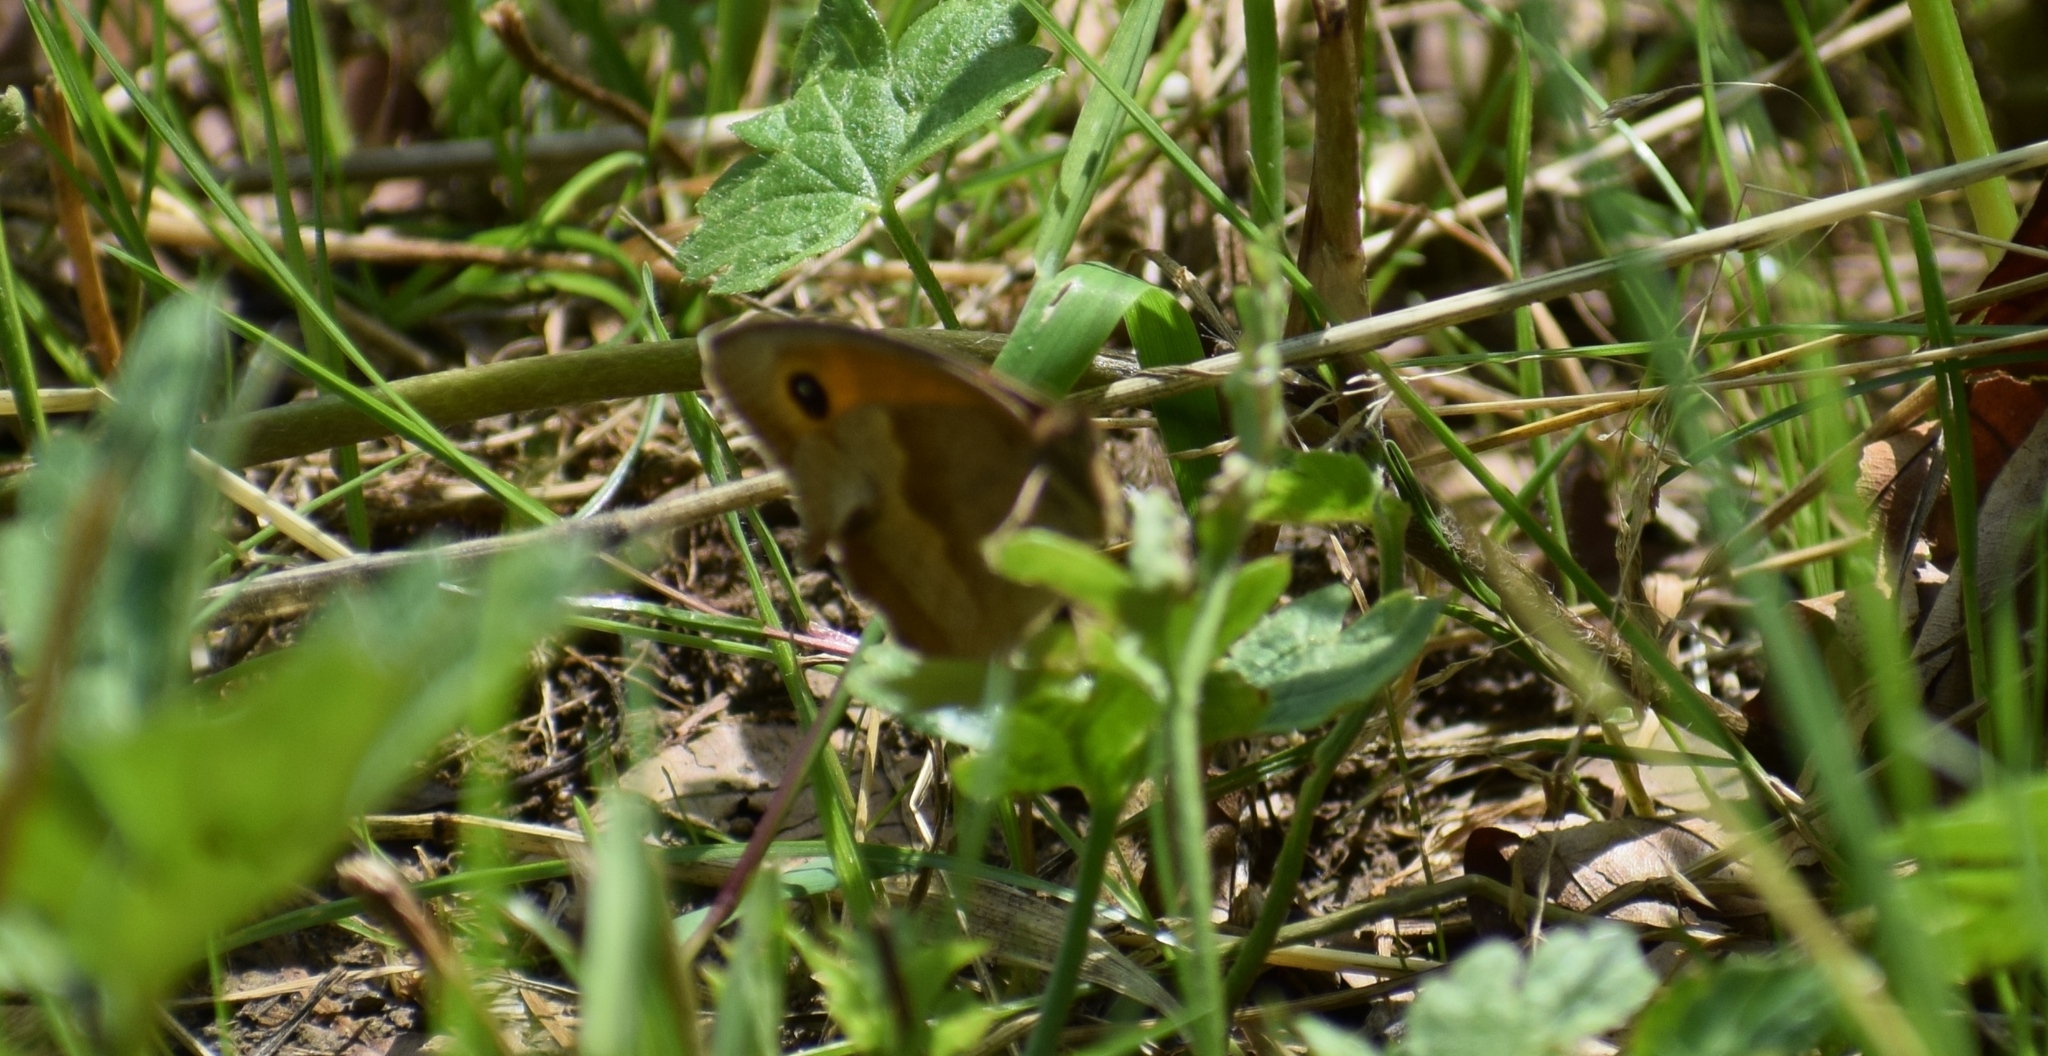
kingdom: Animalia
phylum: Arthropoda
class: Insecta
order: Lepidoptera
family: Nymphalidae
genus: Maniola
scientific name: Maniola jurtina
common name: Meadow brown
